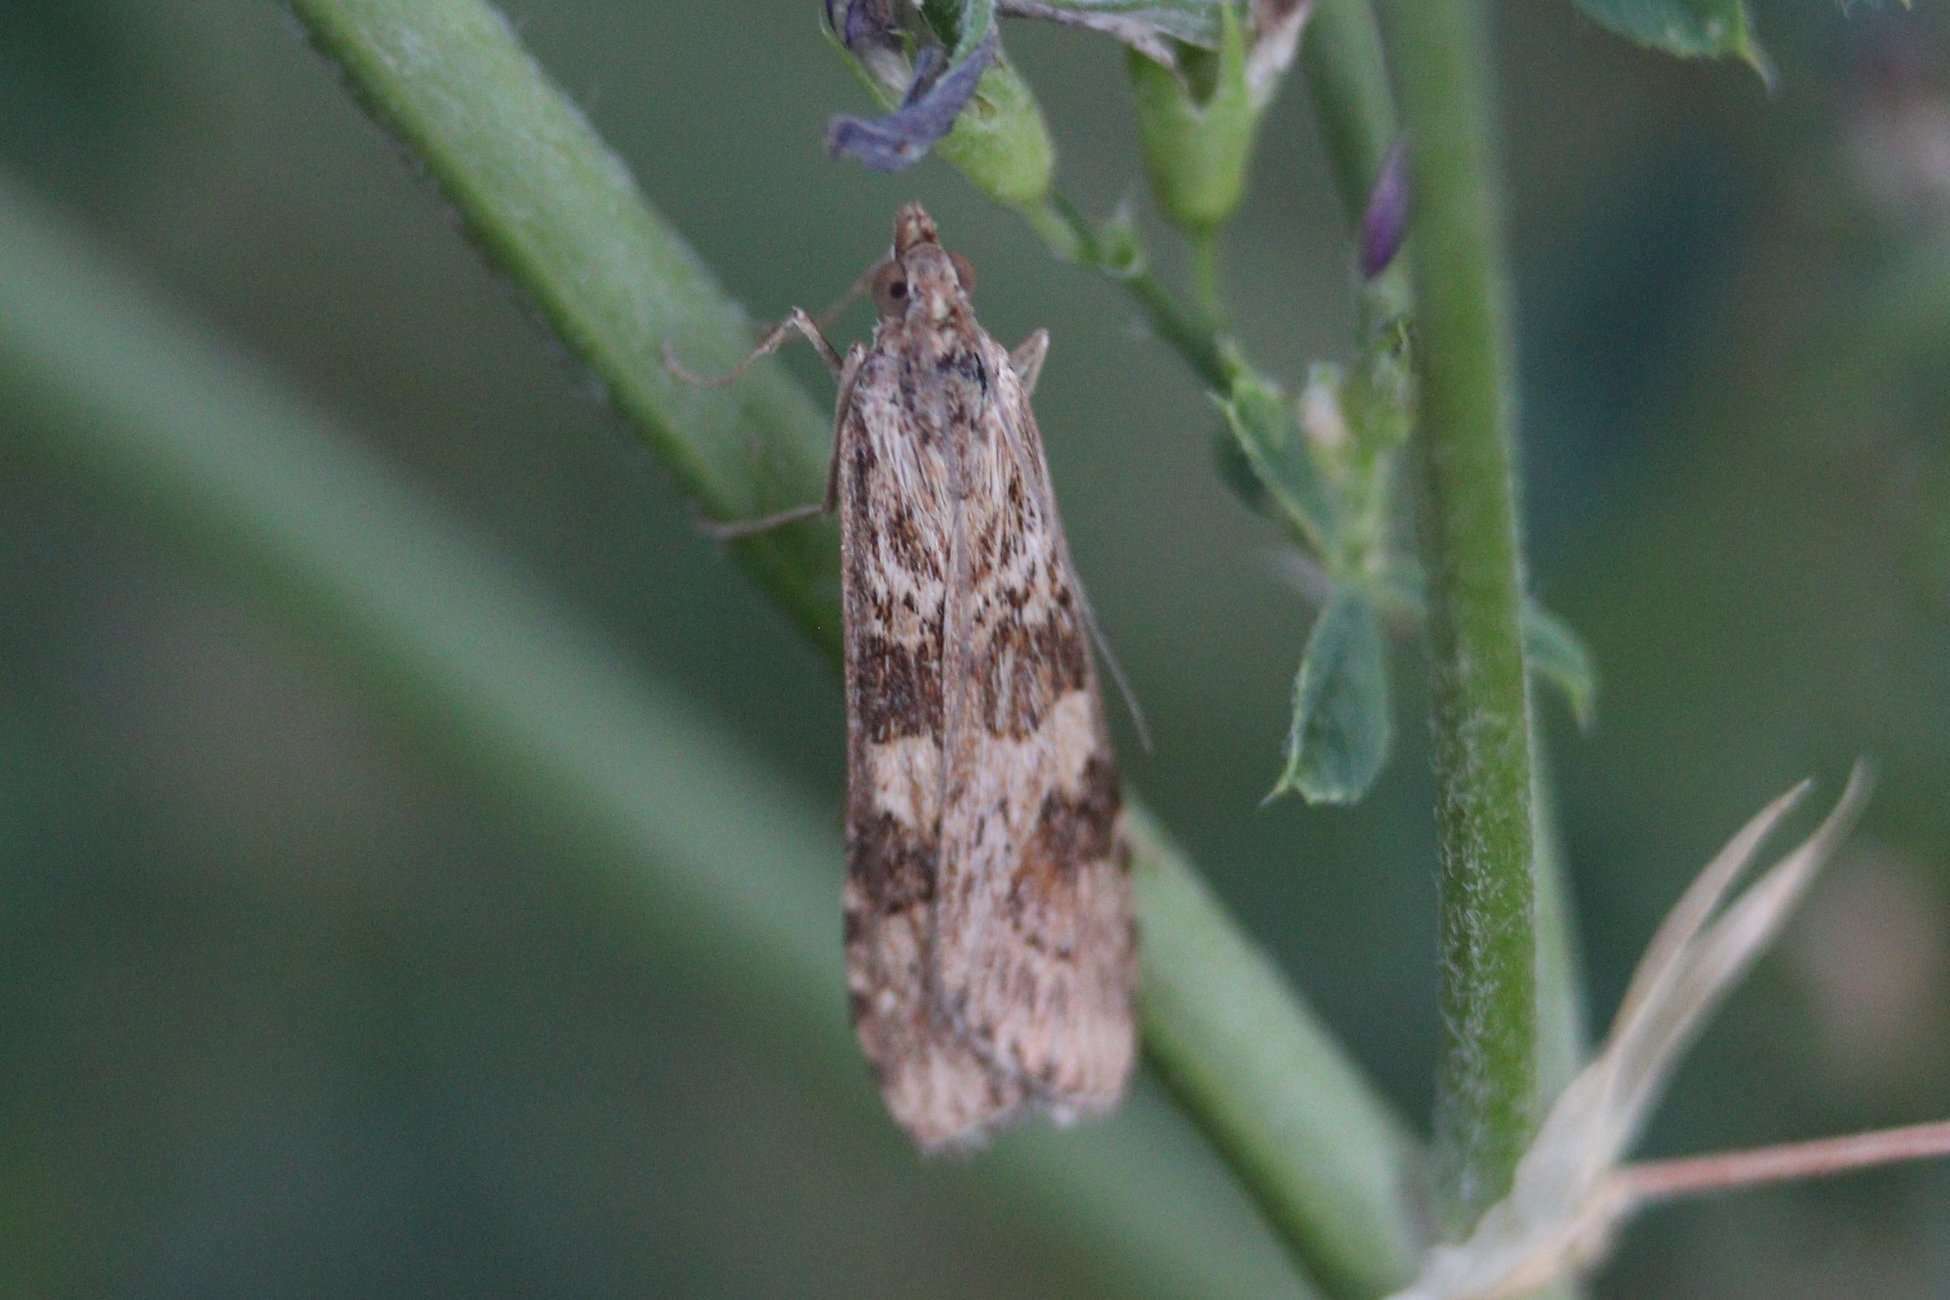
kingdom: Animalia
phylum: Arthropoda
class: Insecta
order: Lepidoptera
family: Crambidae
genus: Nomophila
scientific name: Nomophila noctuella
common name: Rush veneer
